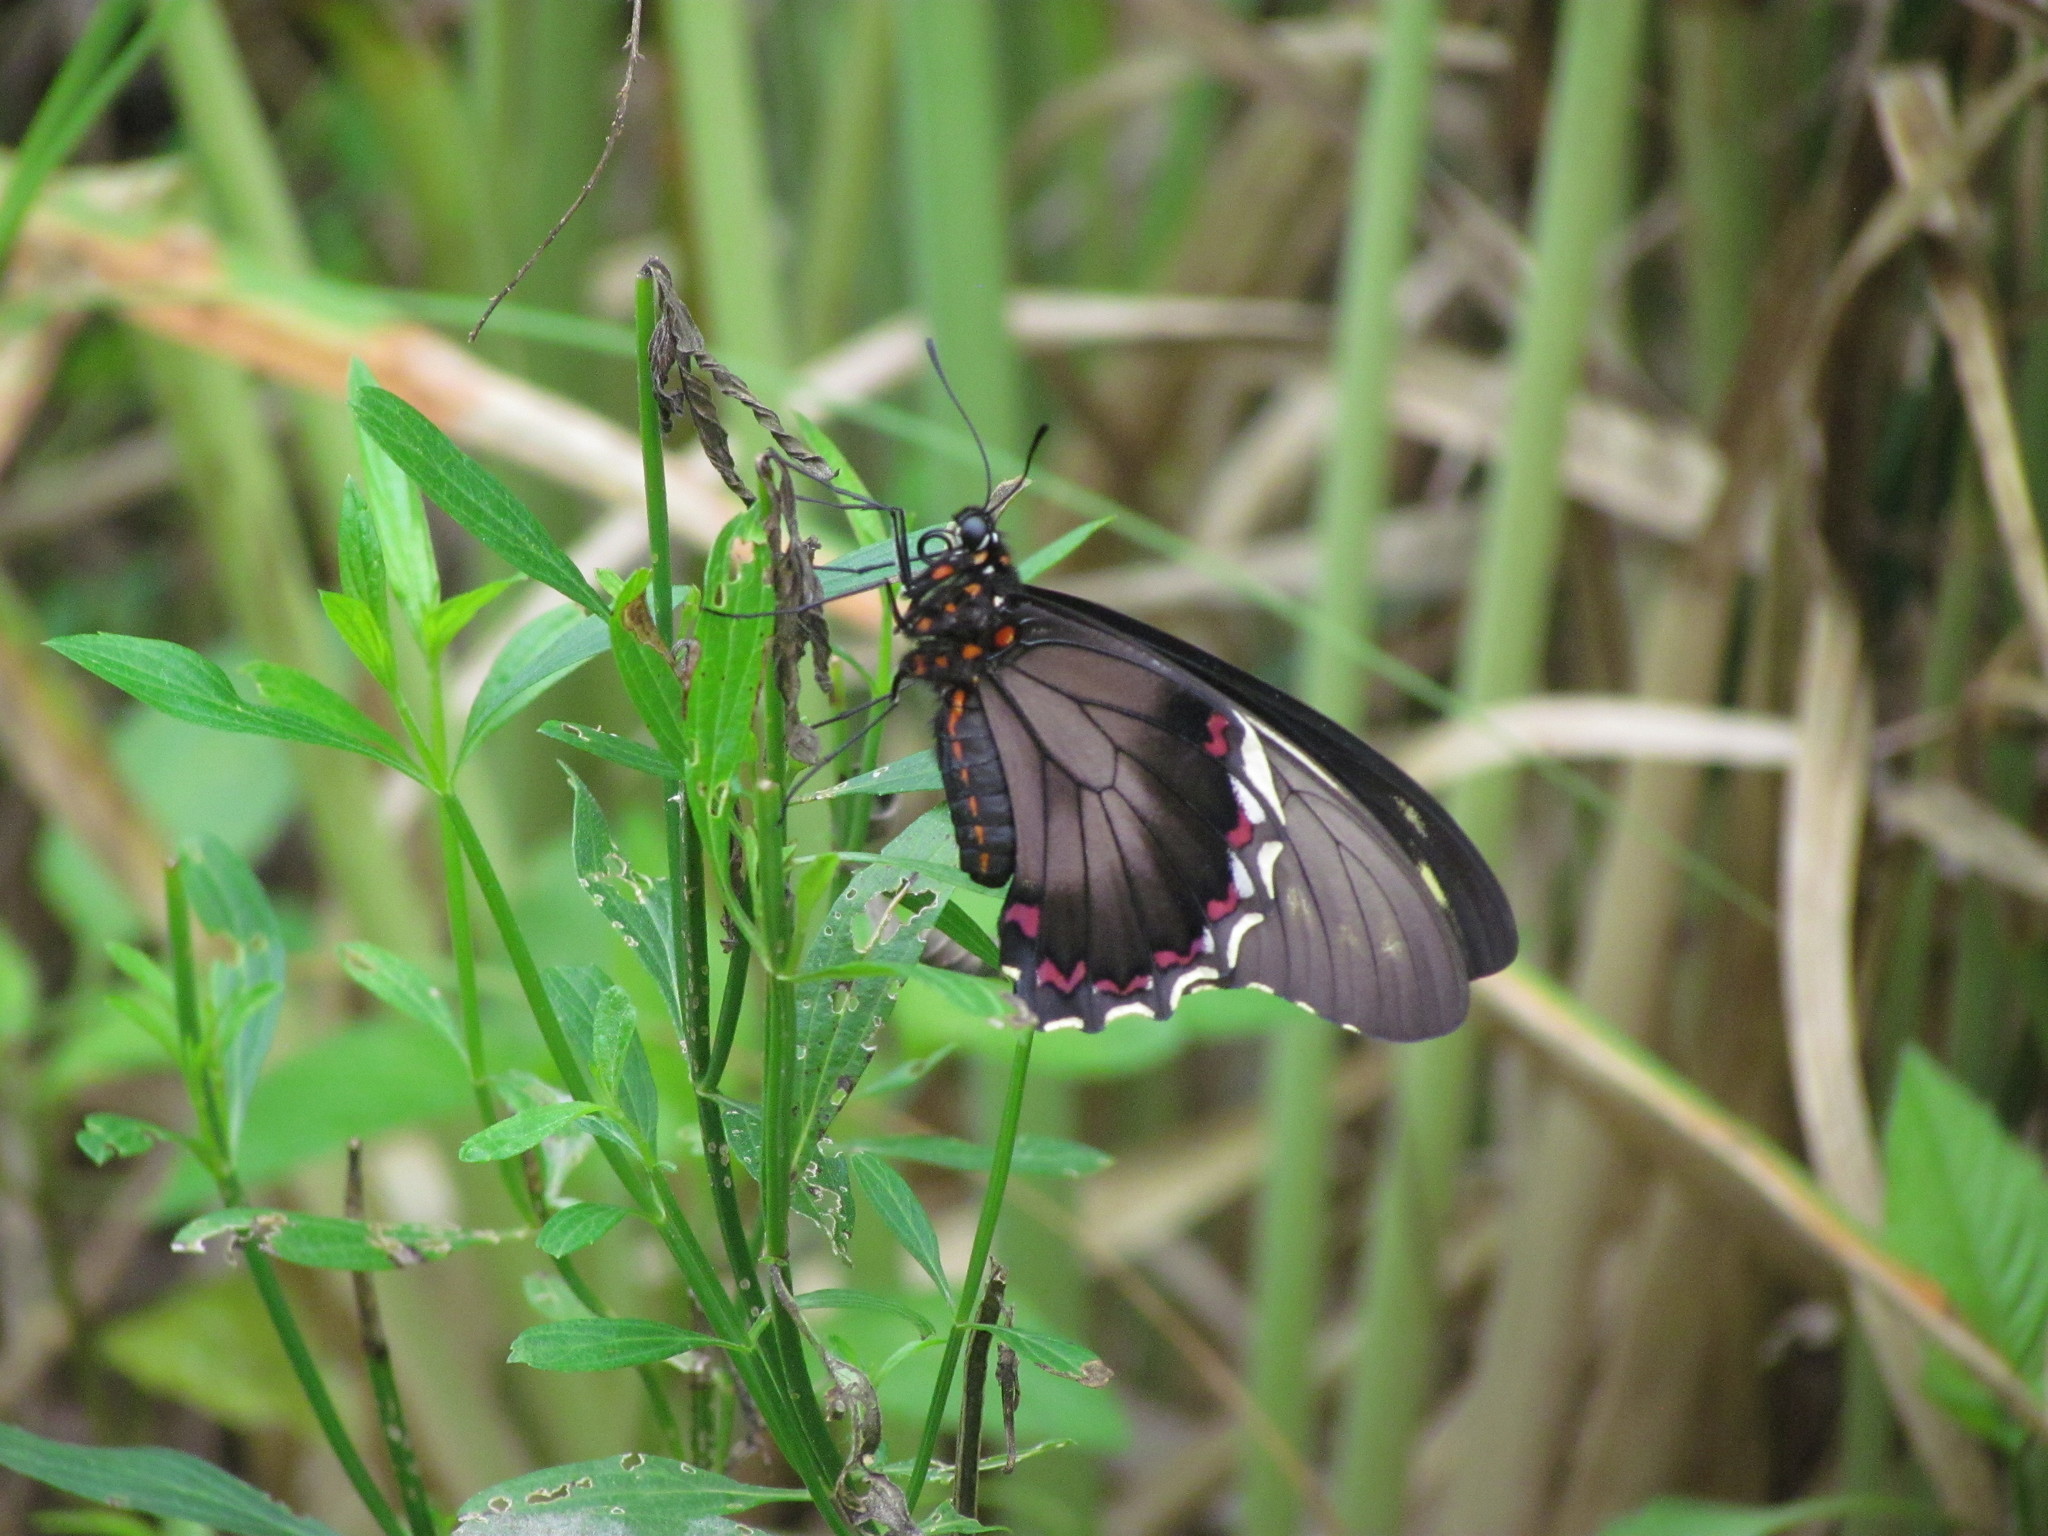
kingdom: Animalia
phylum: Arthropoda
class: Insecta
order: Lepidoptera
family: Papilionidae
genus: Battus
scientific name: Battus polydamas
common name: Polydamas swallowtail
